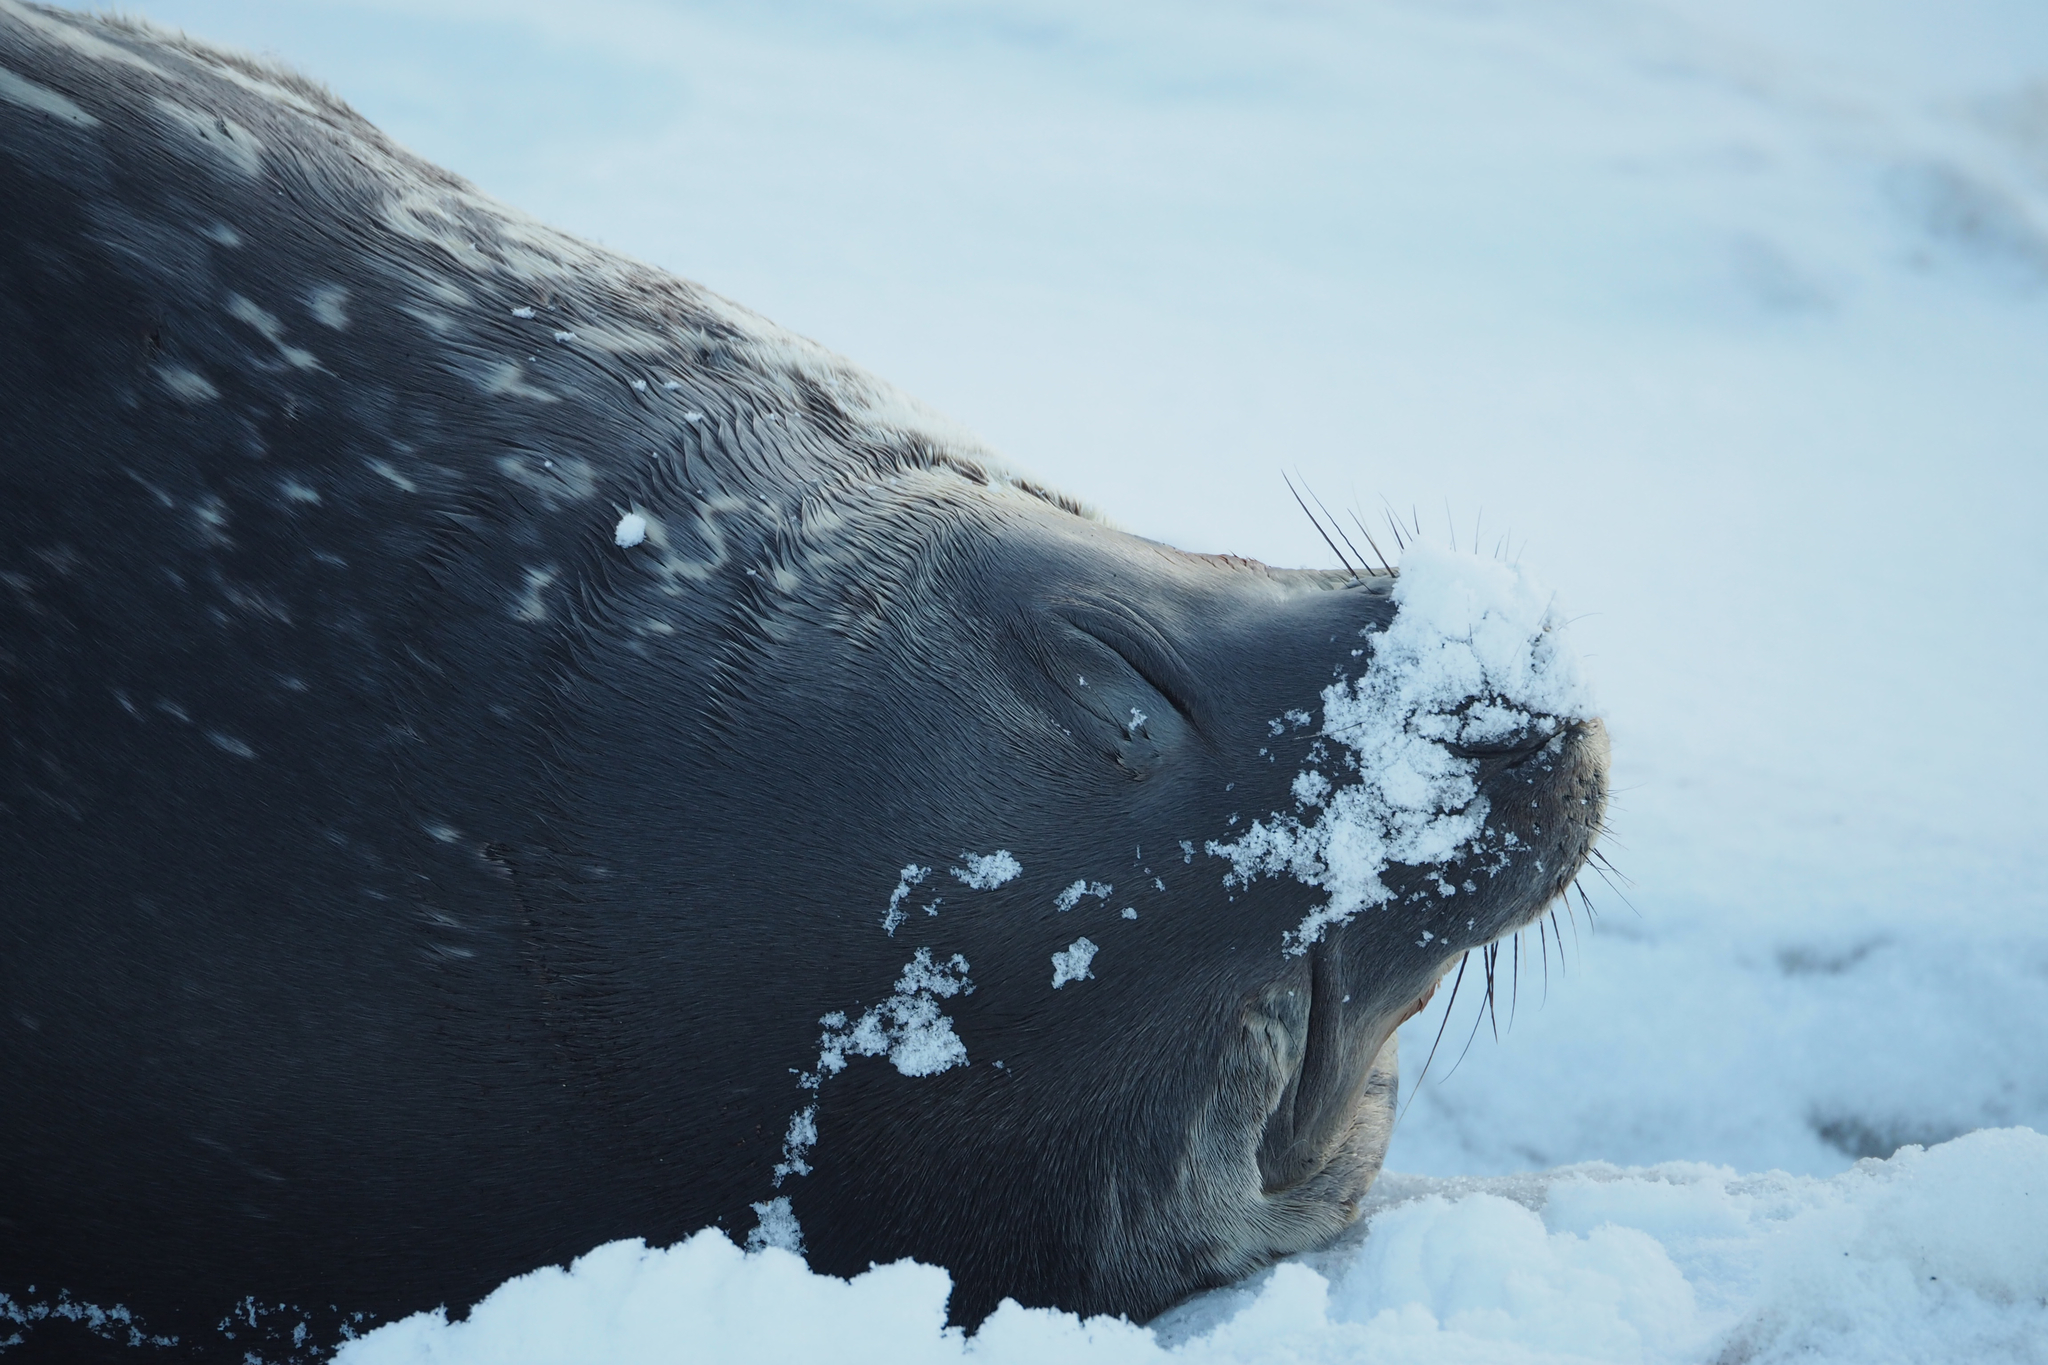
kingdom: Animalia
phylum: Chordata
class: Mammalia
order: Carnivora
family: Phocidae
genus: Leptonychotes
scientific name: Leptonychotes weddellii
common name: Weddell seal
